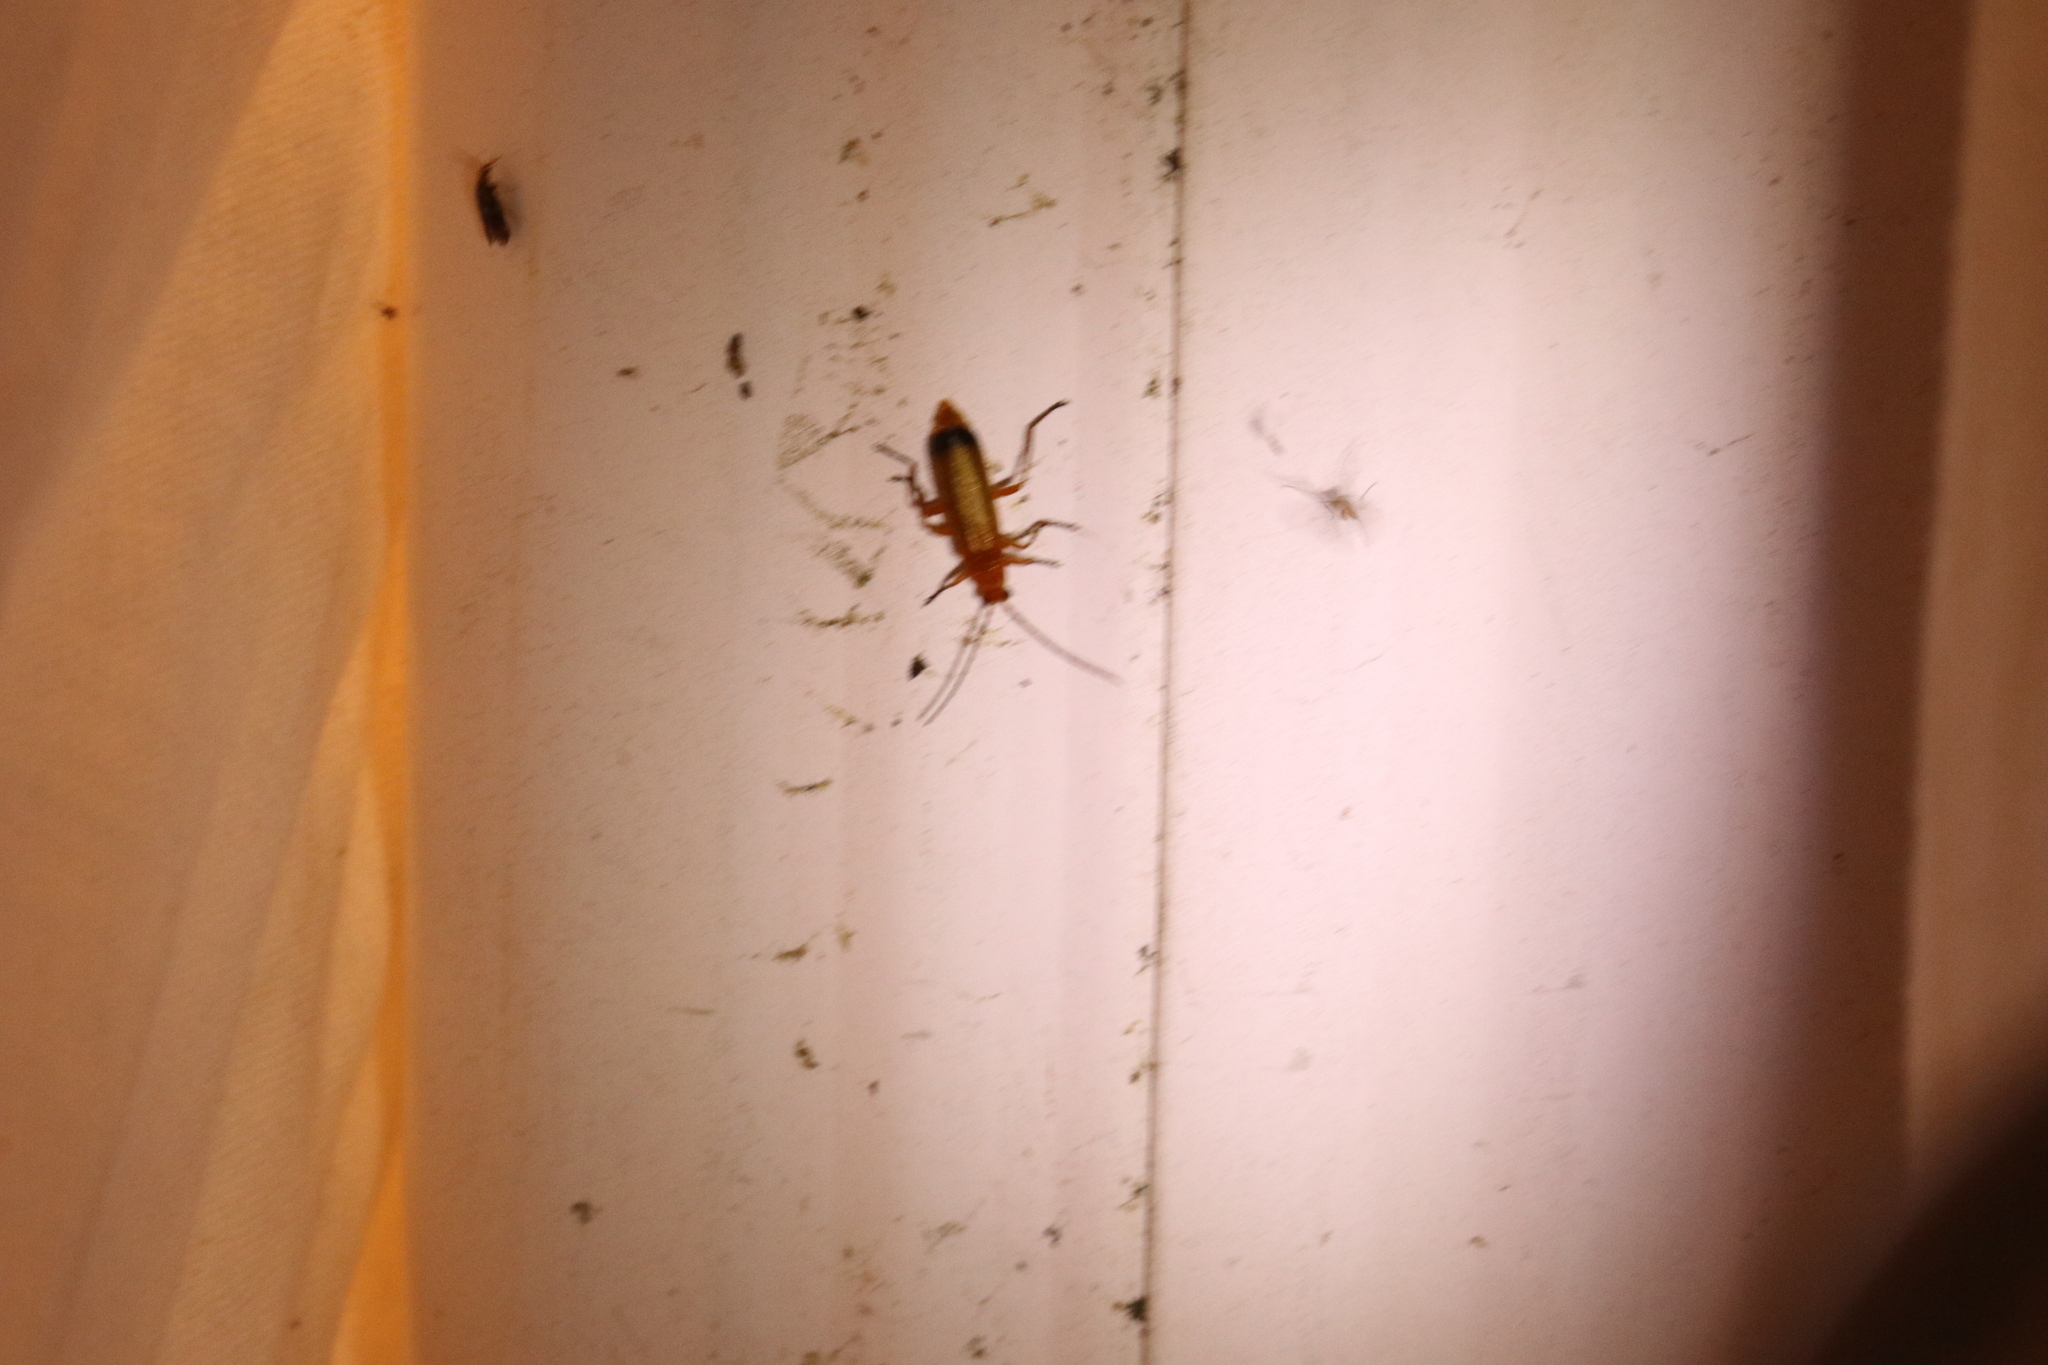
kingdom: Animalia
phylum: Arthropoda
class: Insecta
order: Coleoptera
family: Cantharidae
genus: Rhagonycha
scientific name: Rhagonycha fulva
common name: Common red soldier beetle
